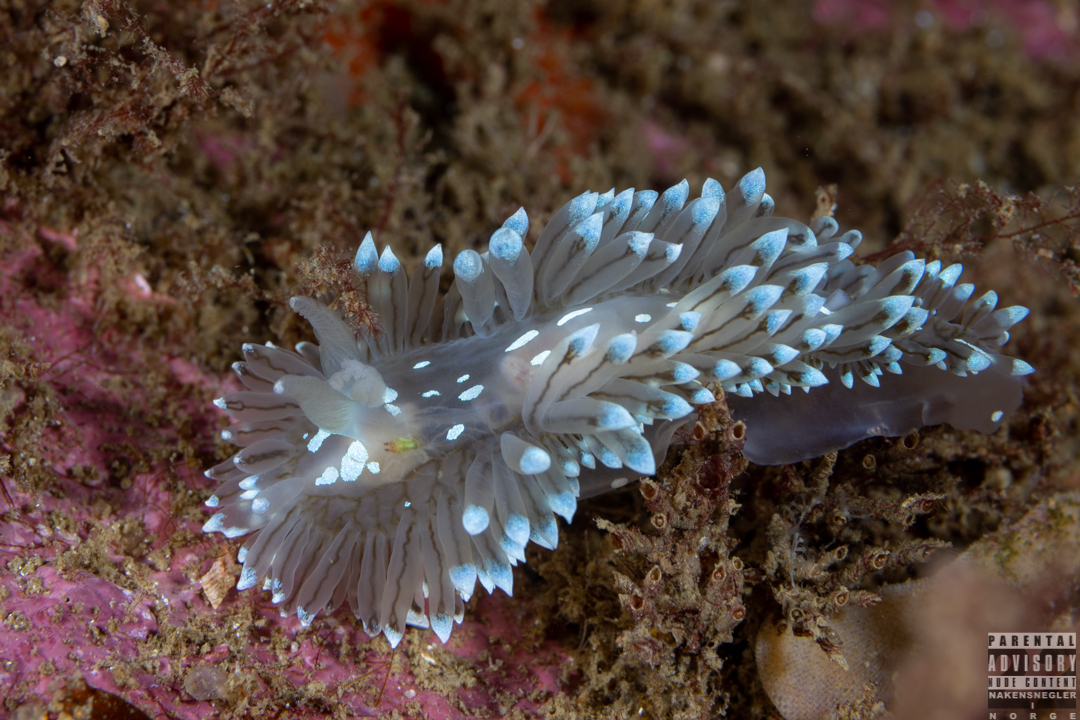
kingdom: Animalia
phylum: Mollusca
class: Gastropoda
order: Nudibranchia
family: Janolidae
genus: Antiopella
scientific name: Antiopella cristata
